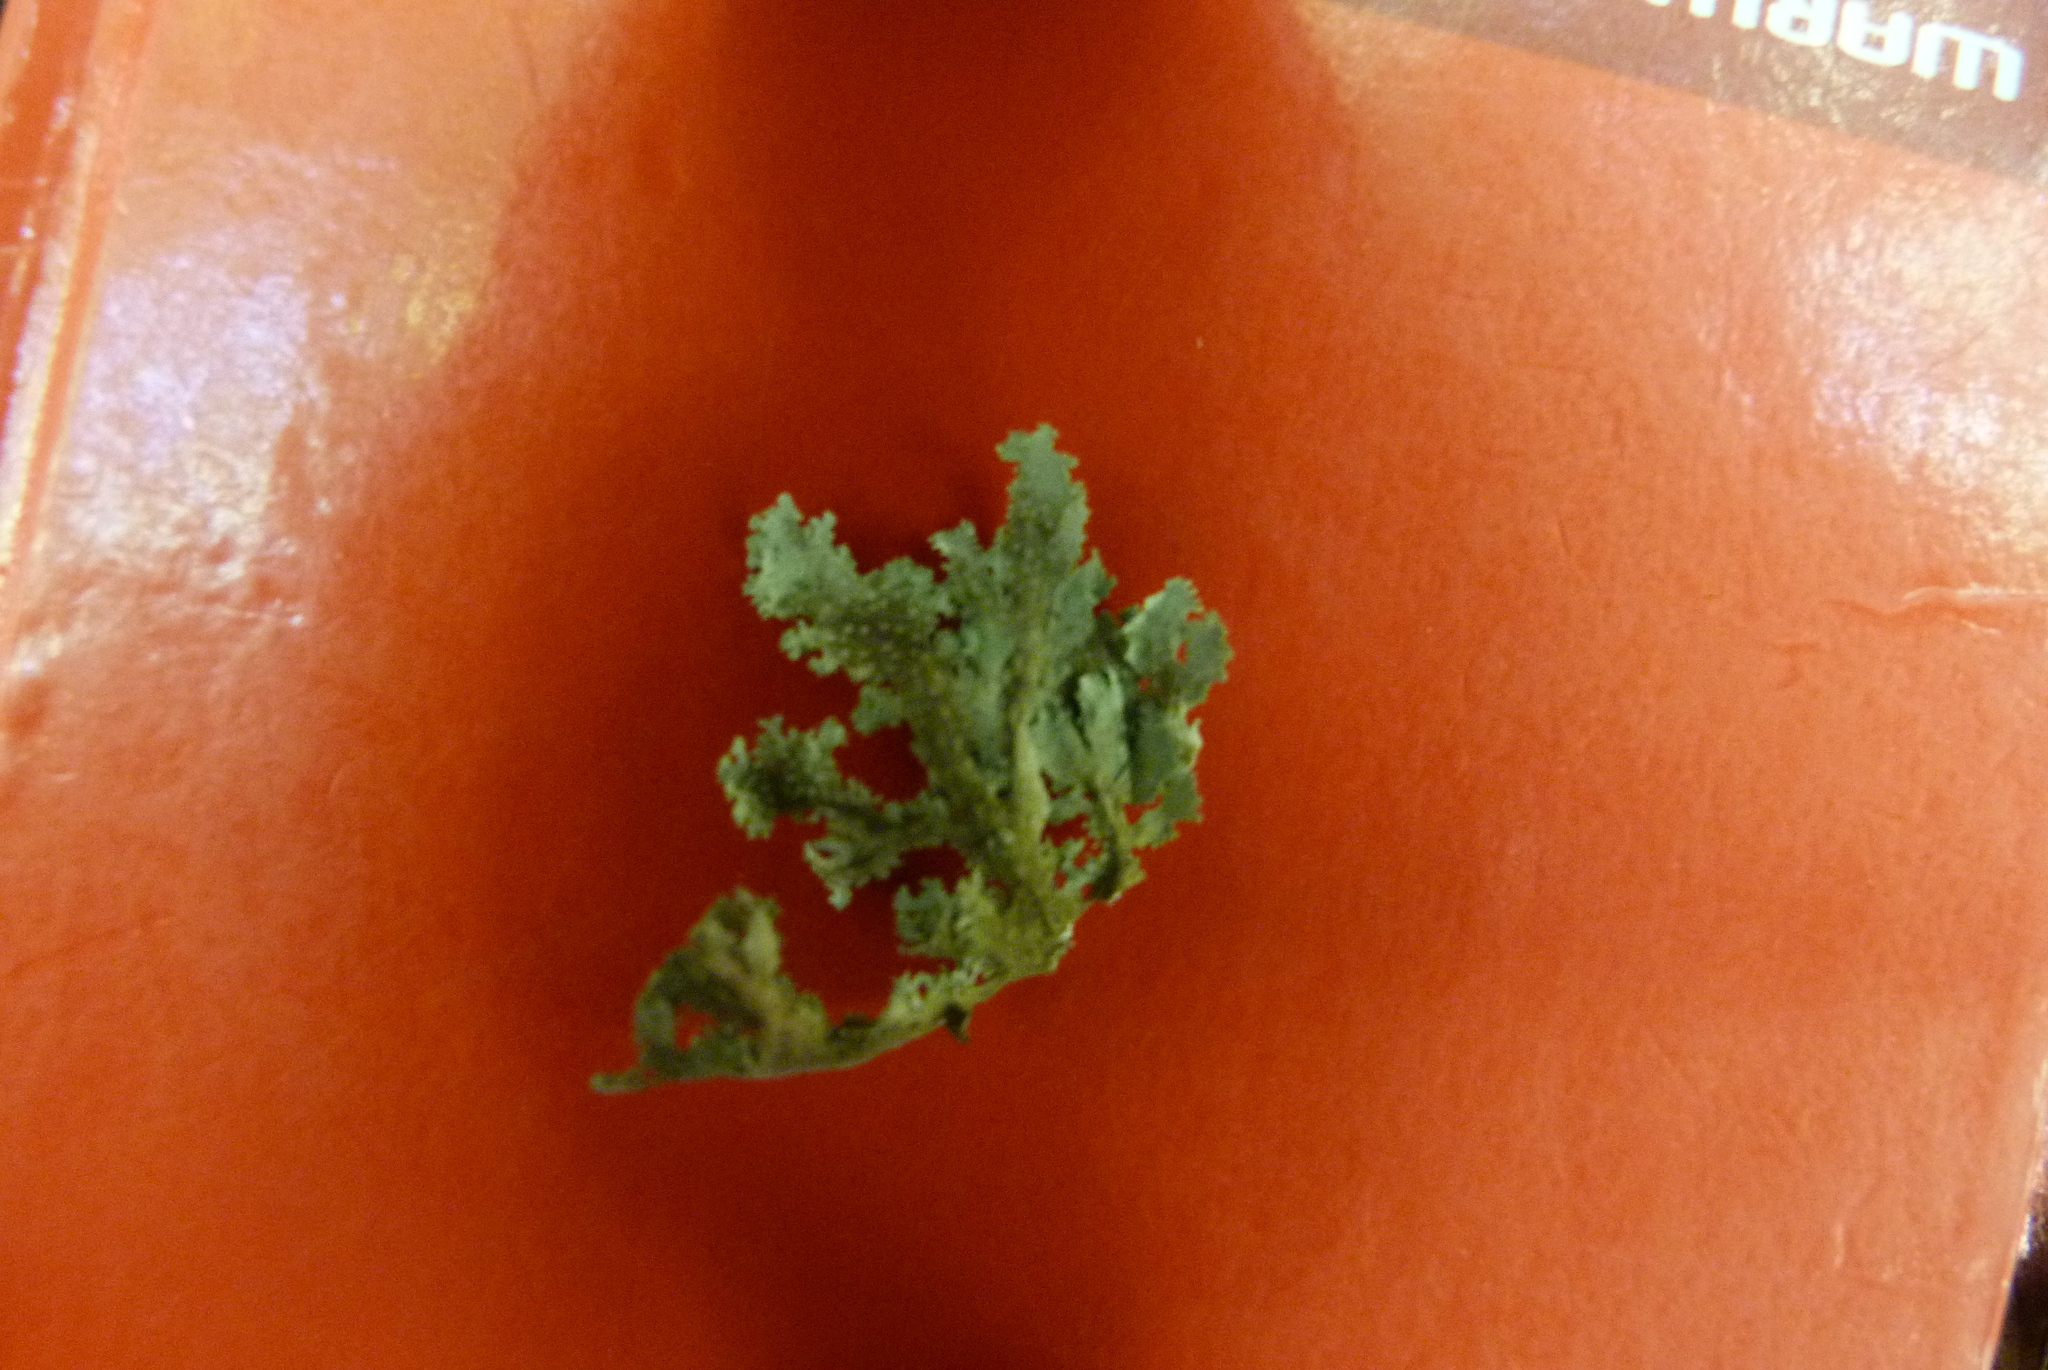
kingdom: Fungi
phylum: Ascomycota
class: Lecanoromycetes
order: Peltigerales
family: Lobariaceae
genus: Sticta
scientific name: Sticta filix
